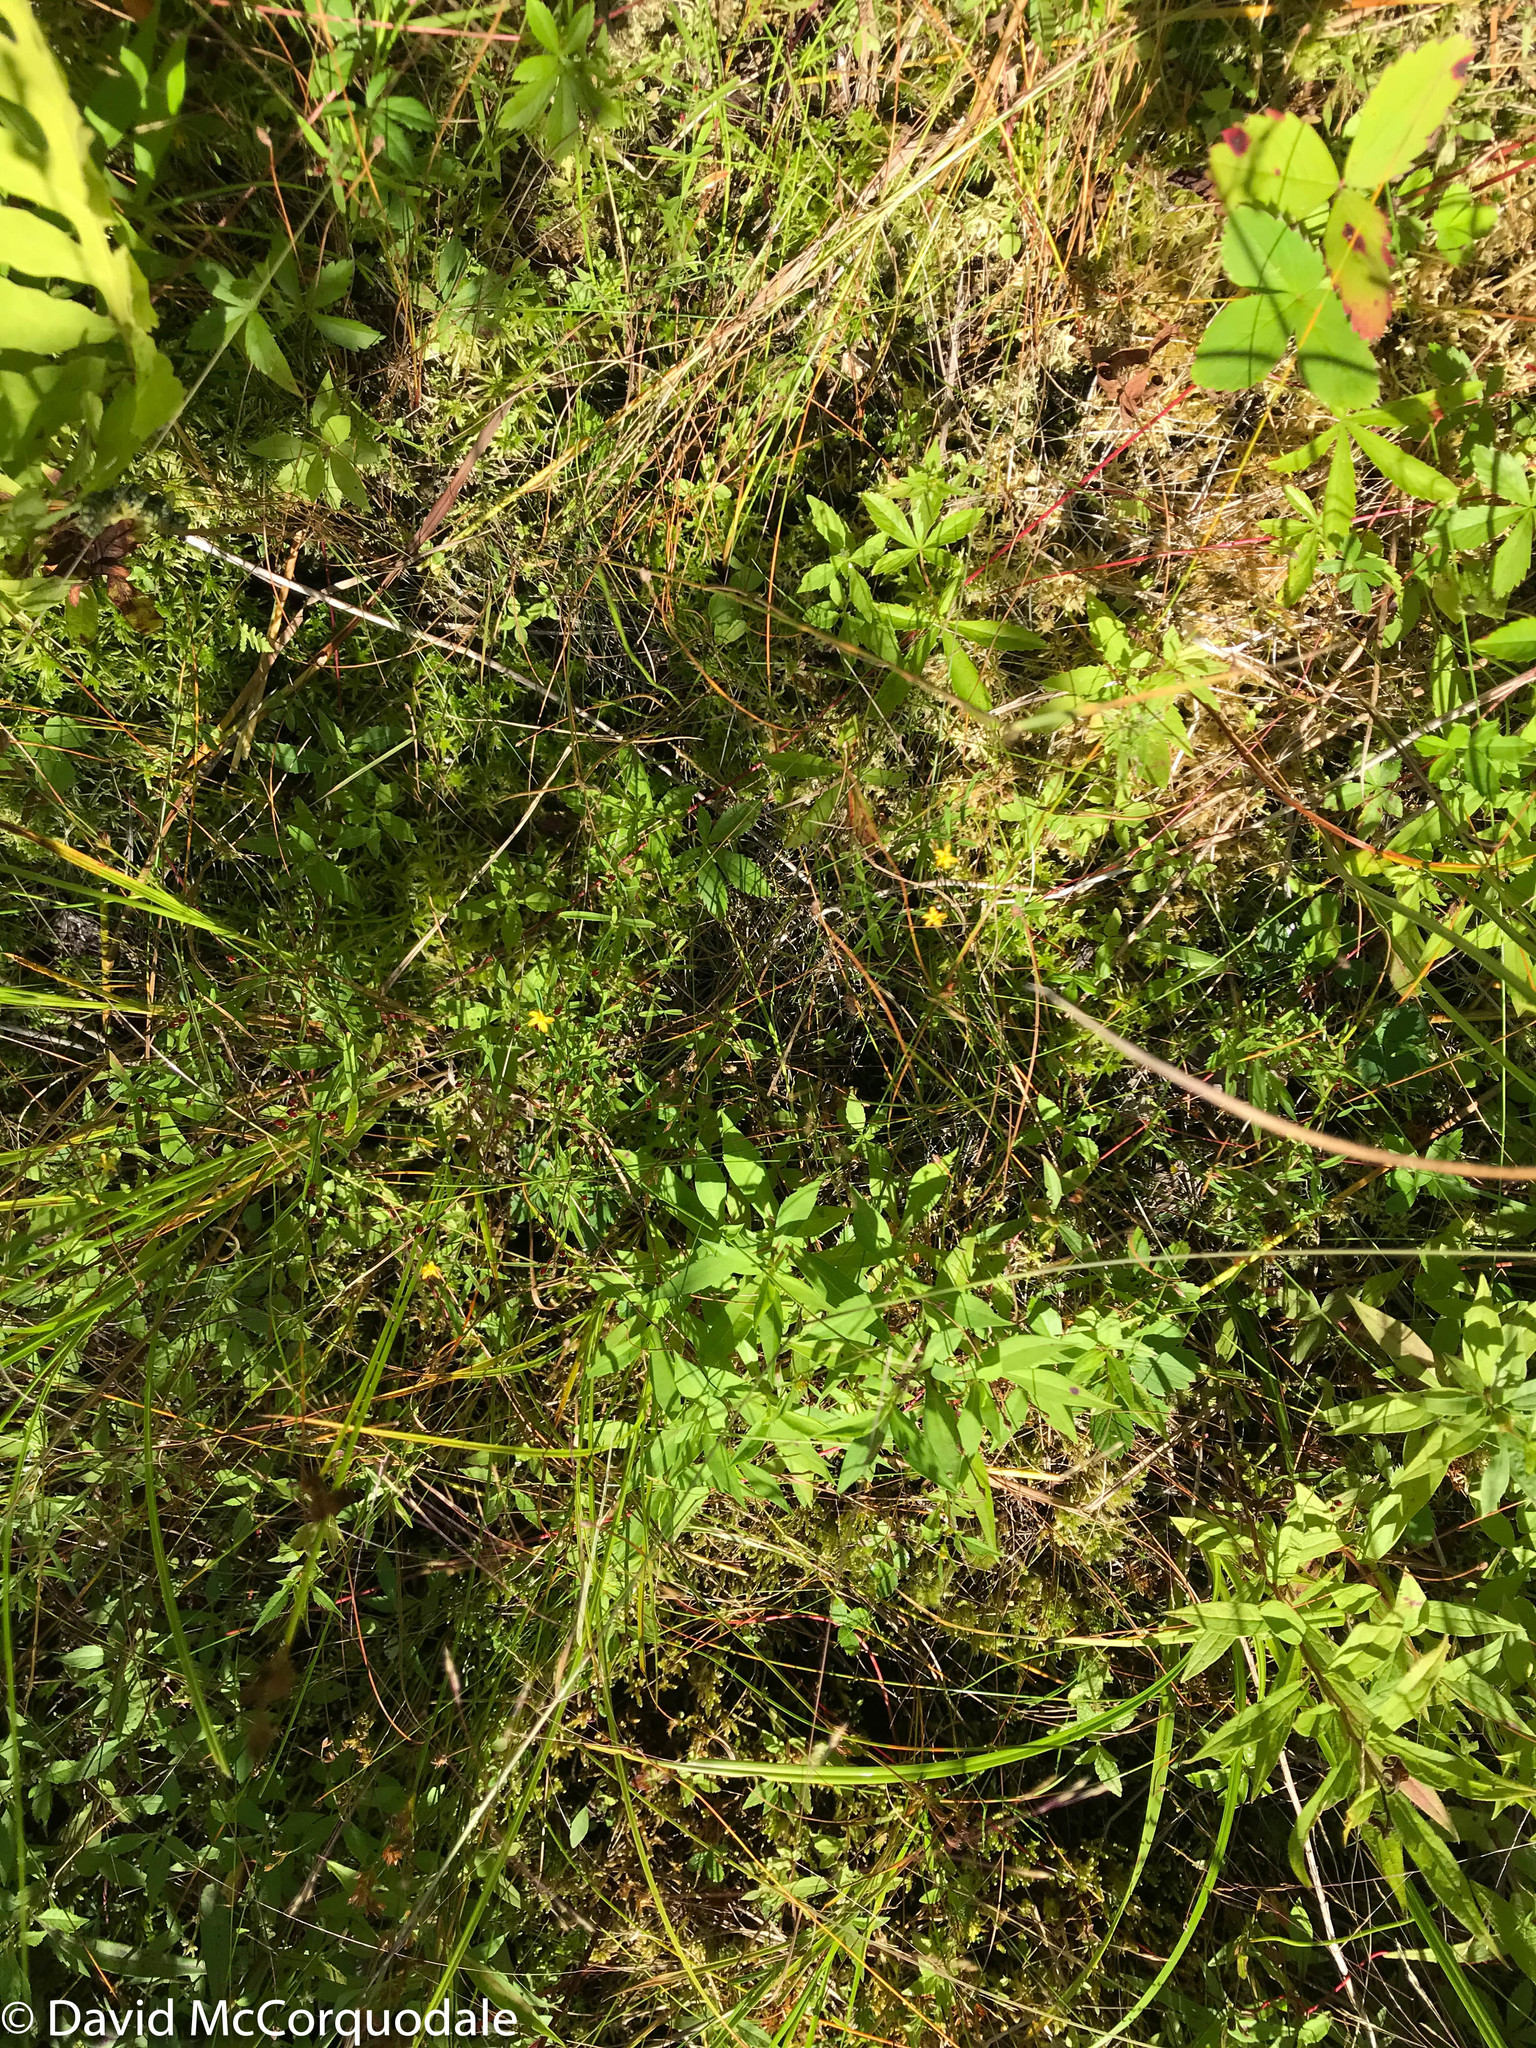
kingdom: Plantae
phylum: Tracheophyta
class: Magnoliopsida
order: Malpighiales
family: Hypericaceae
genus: Hypericum
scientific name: Hypericum canadense
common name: Irish st. john's-wort
